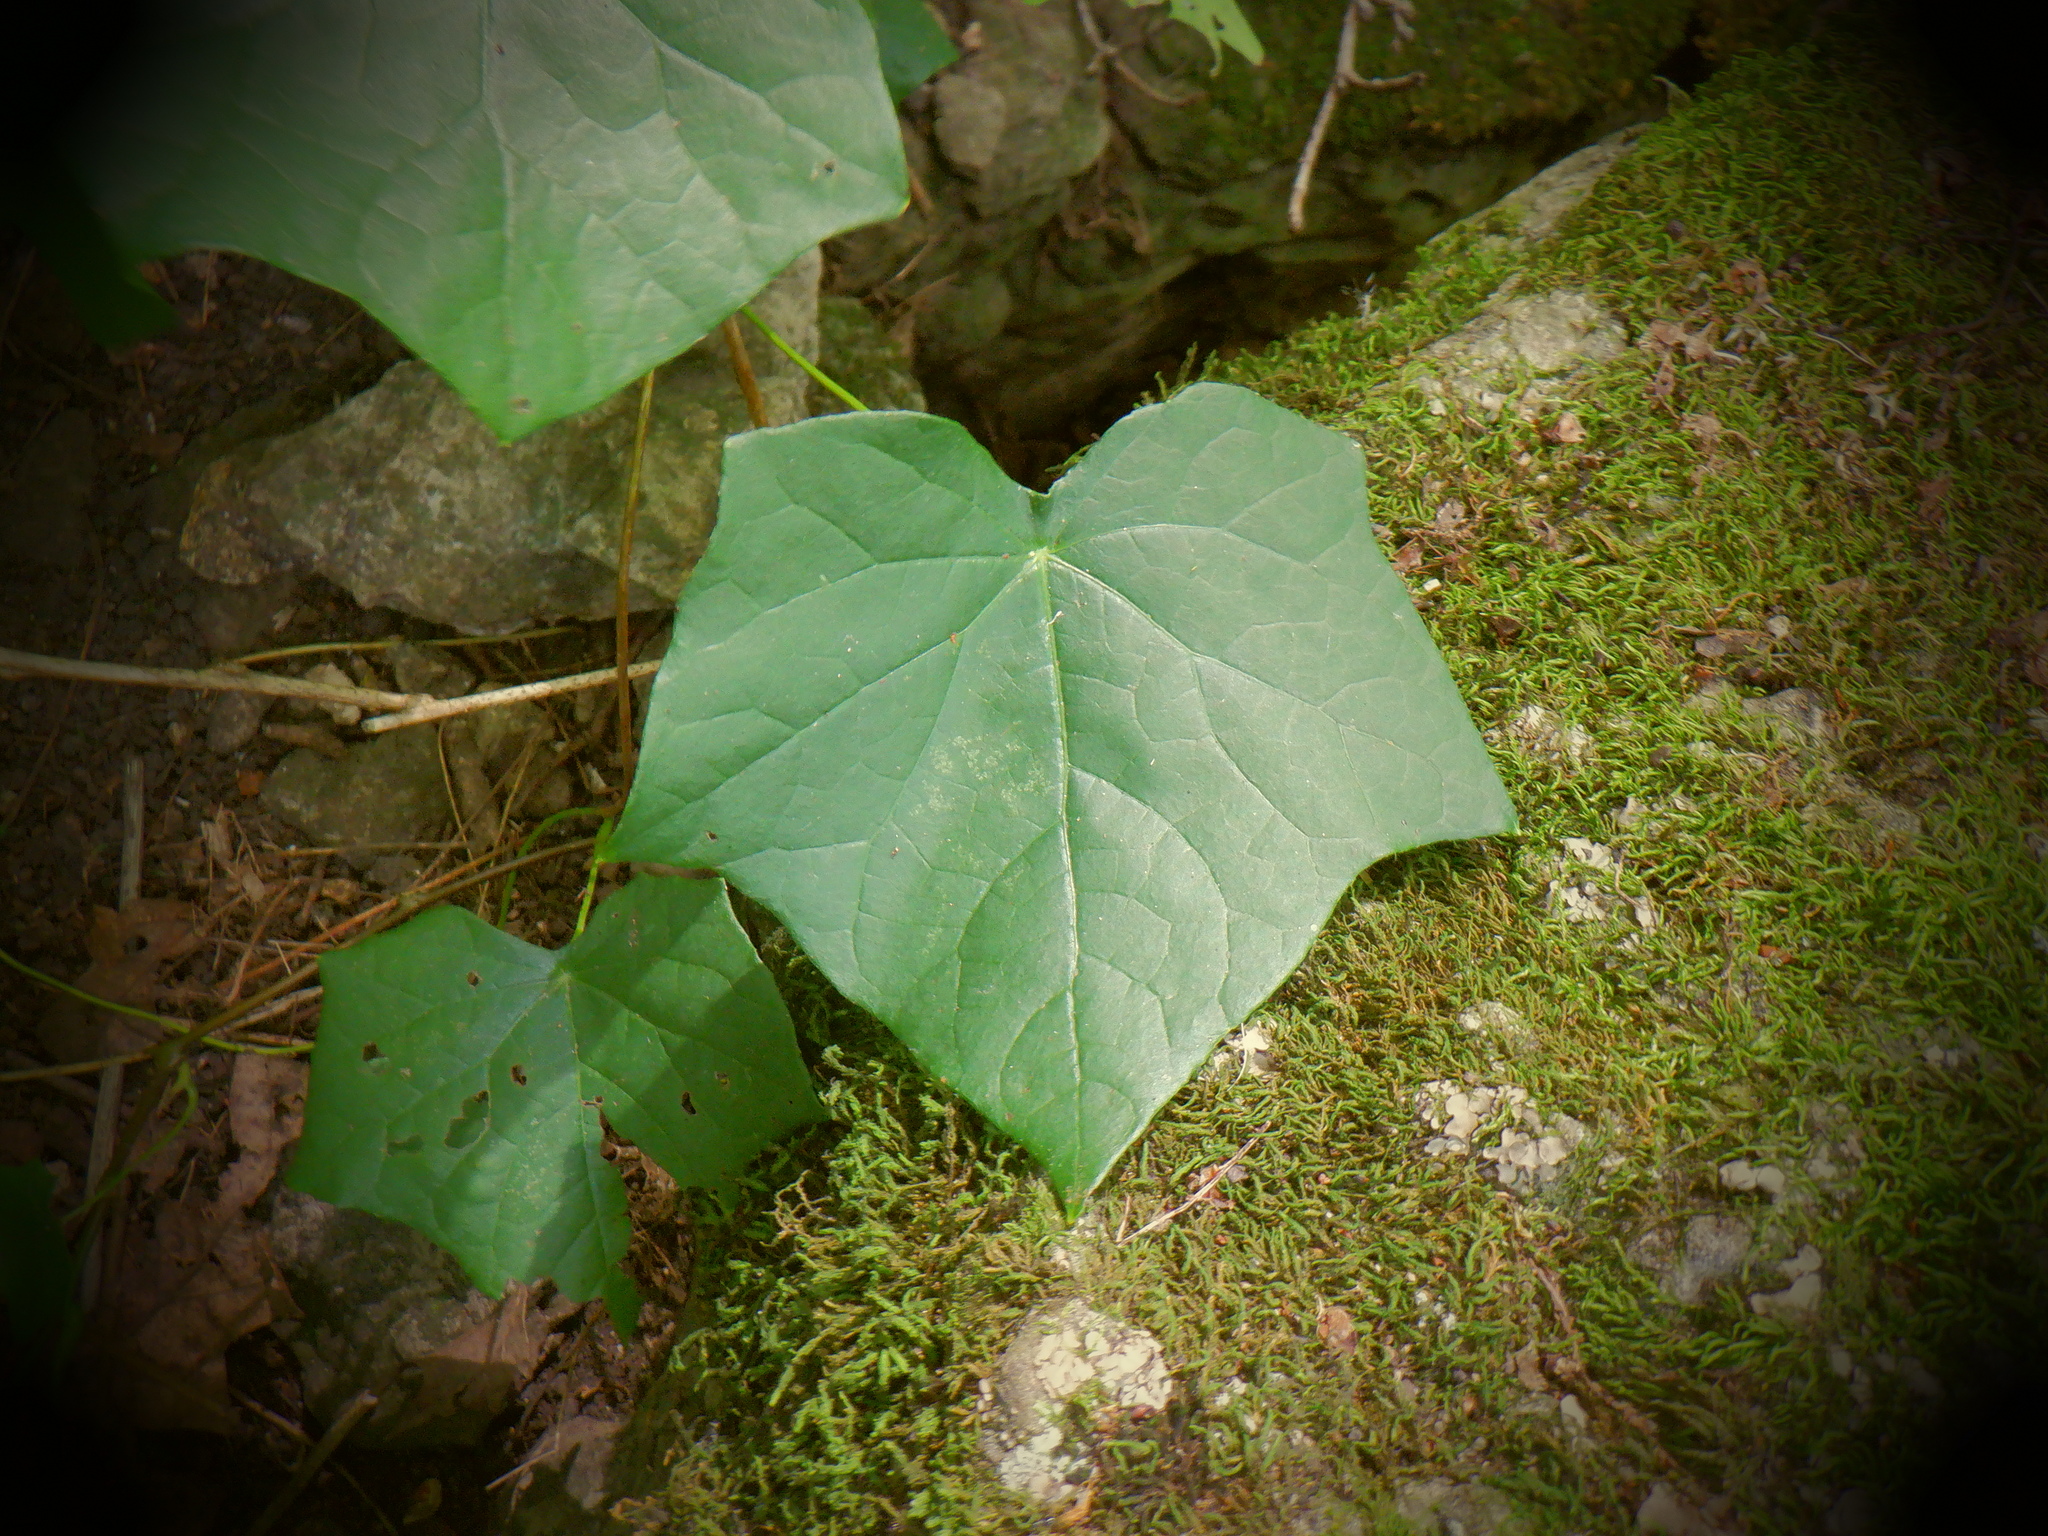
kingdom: Plantae
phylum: Tracheophyta
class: Magnoliopsida
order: Ranunculales
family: Menispermaceae
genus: Menispermum
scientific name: Menispermum canadense
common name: Moonseed
